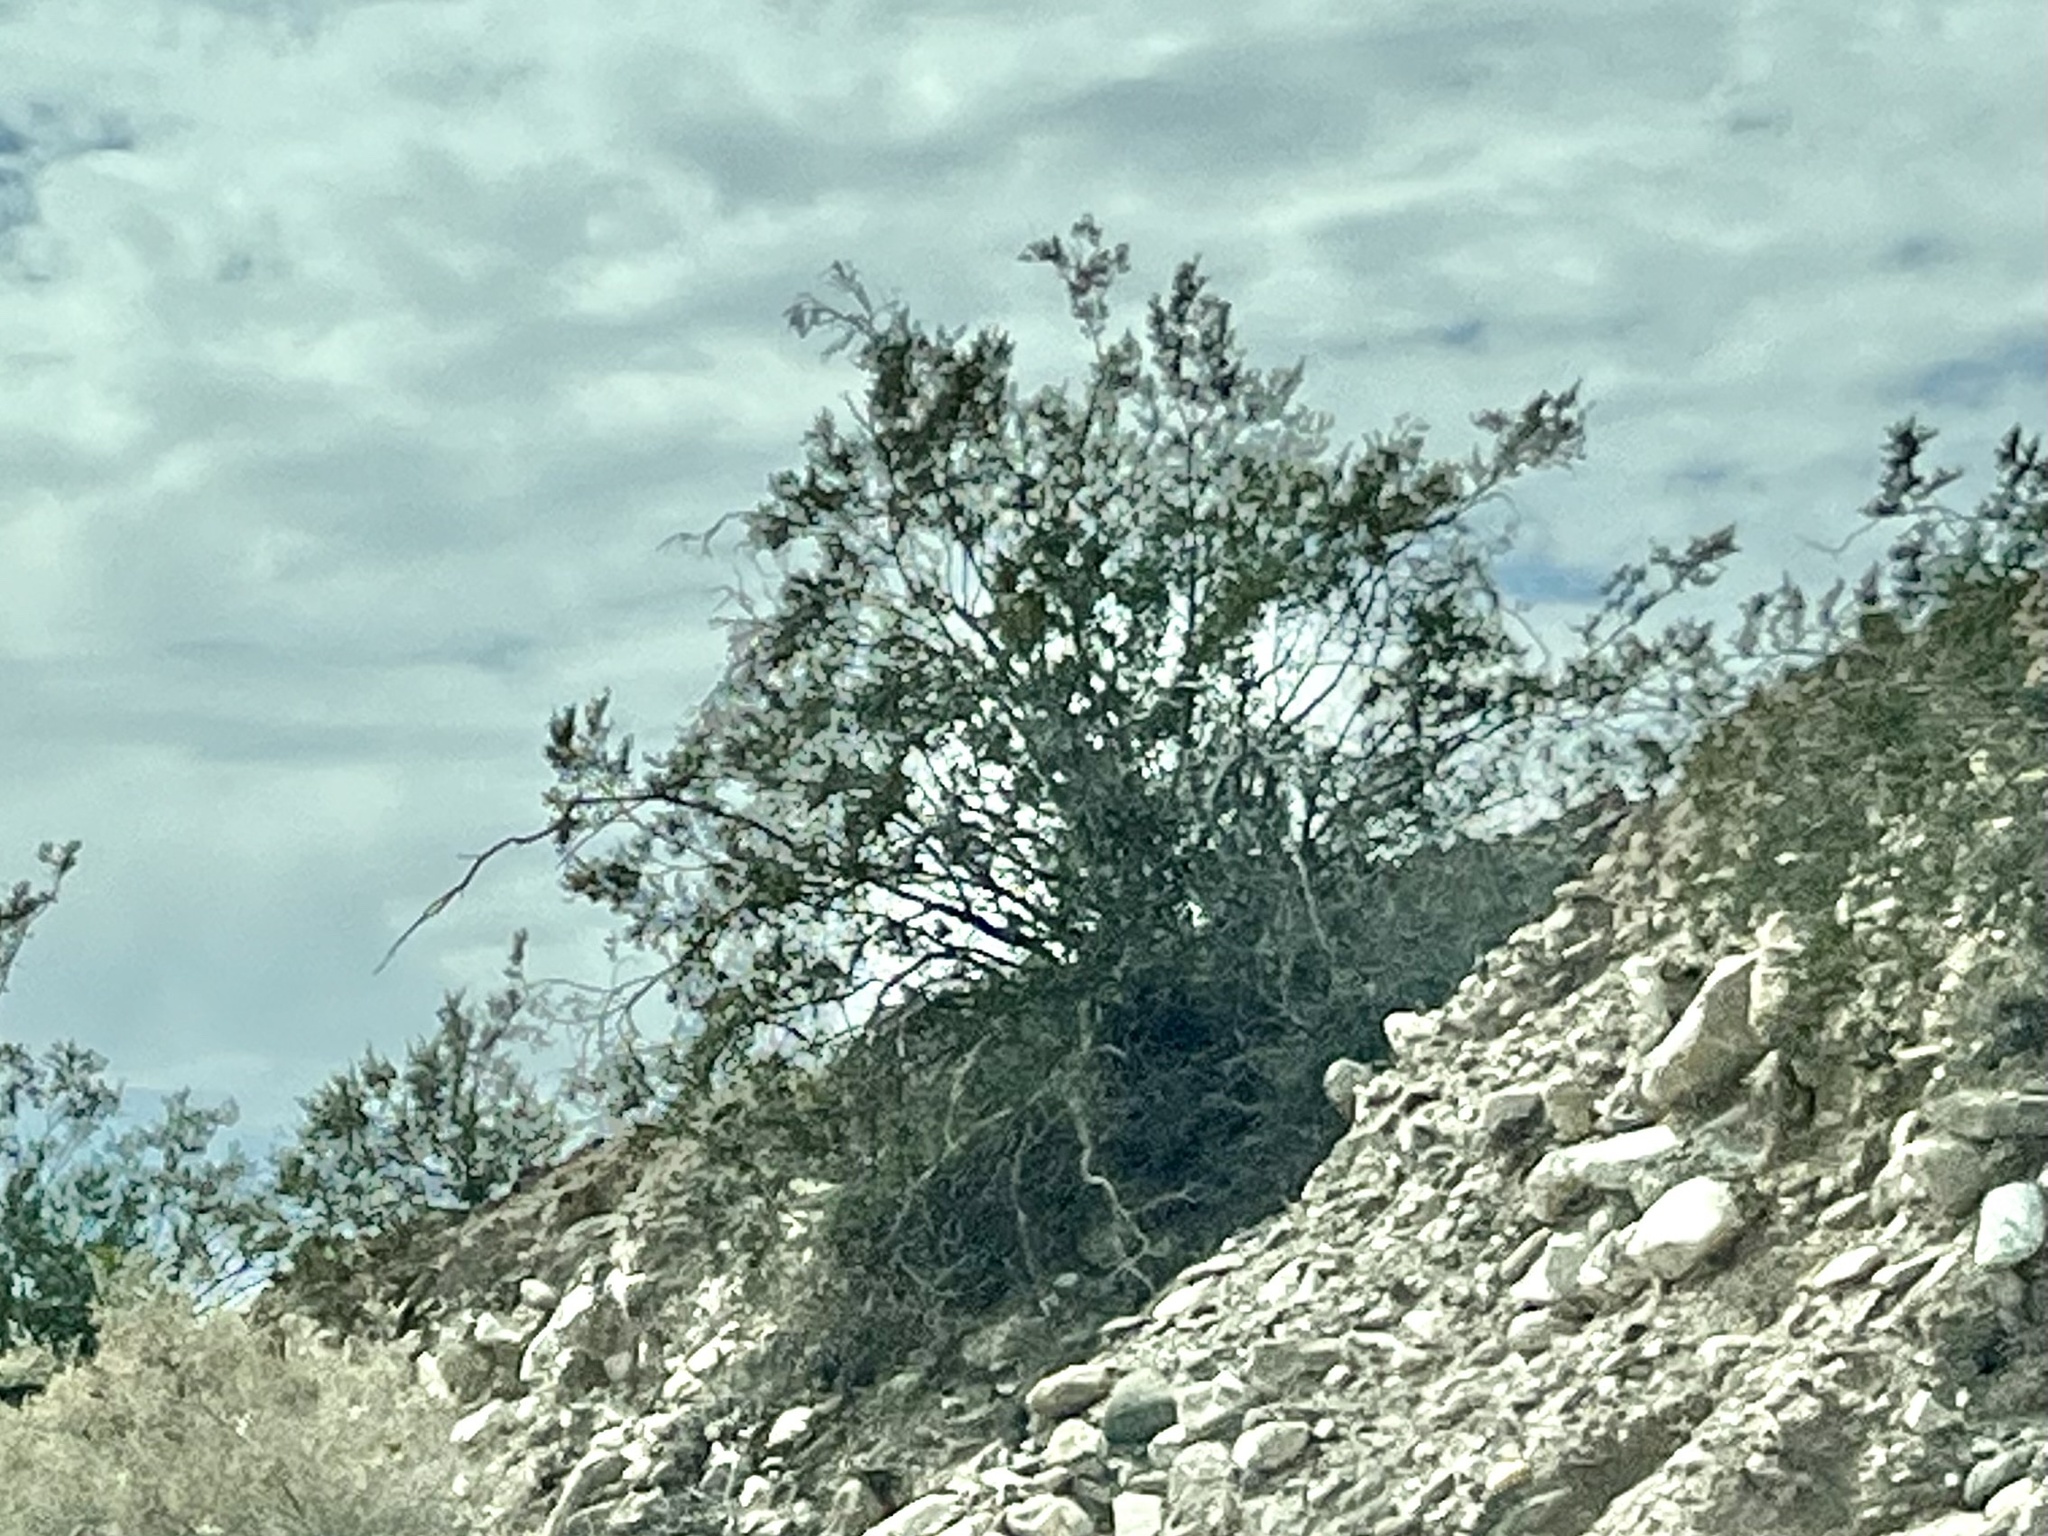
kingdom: Plantae
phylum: Tracheophyta
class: Magnoliopsida
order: Zygophyllales
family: Zygophyllaceae
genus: Larrea
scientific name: Larrea tridentata
